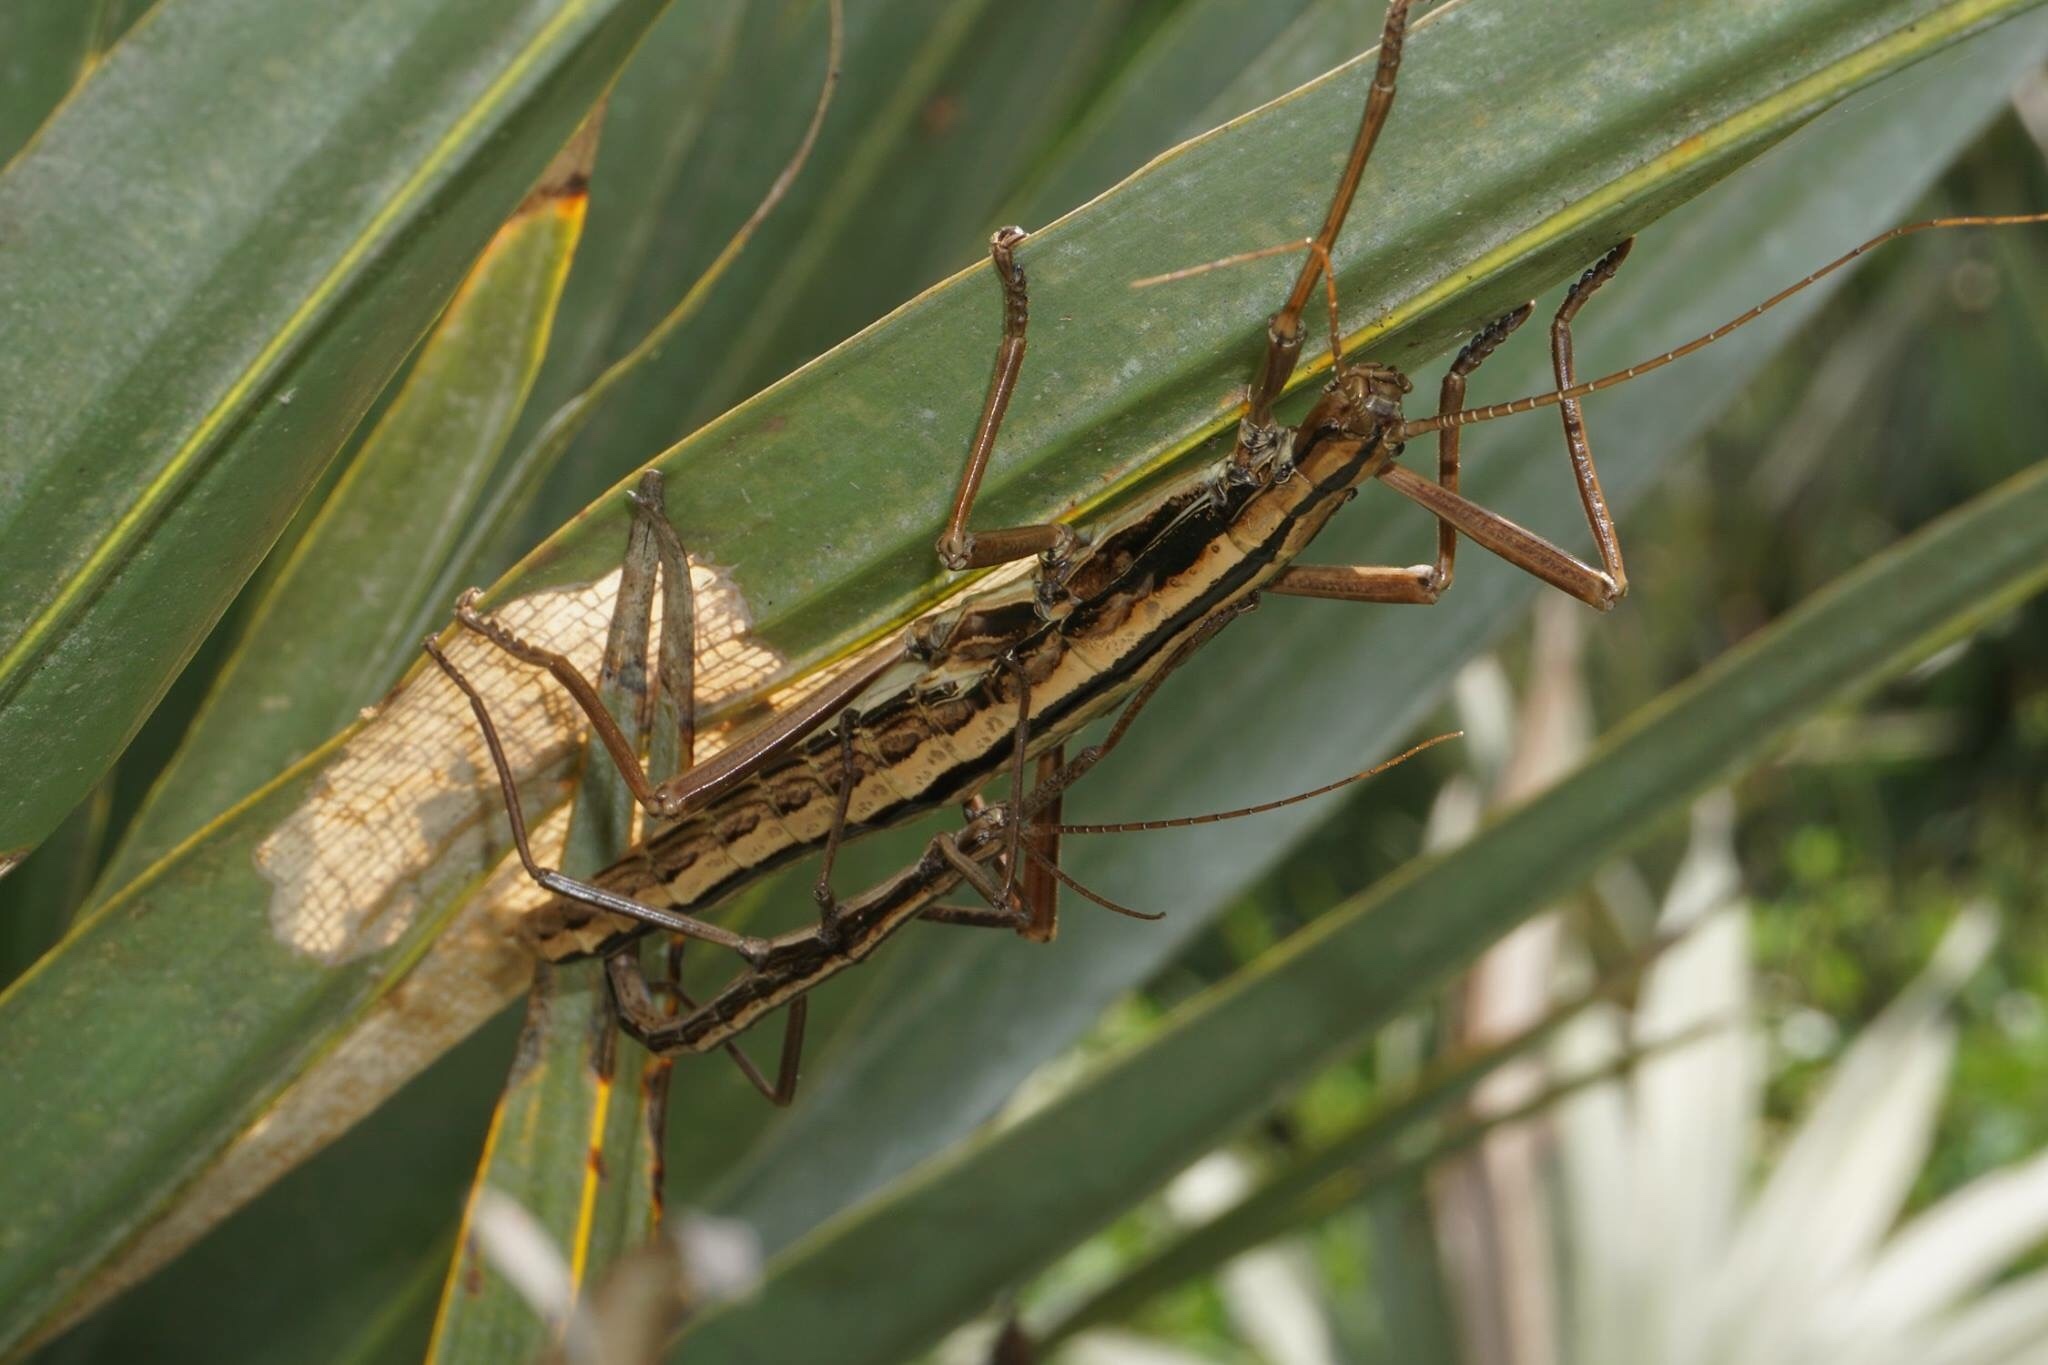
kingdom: Animalia
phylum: Arthropoda
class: Insecta
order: Phasmida
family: Pseudophasmatidae
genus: Anisomorpha
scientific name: Anisomorpha buprestoides
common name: Florida stick insect
